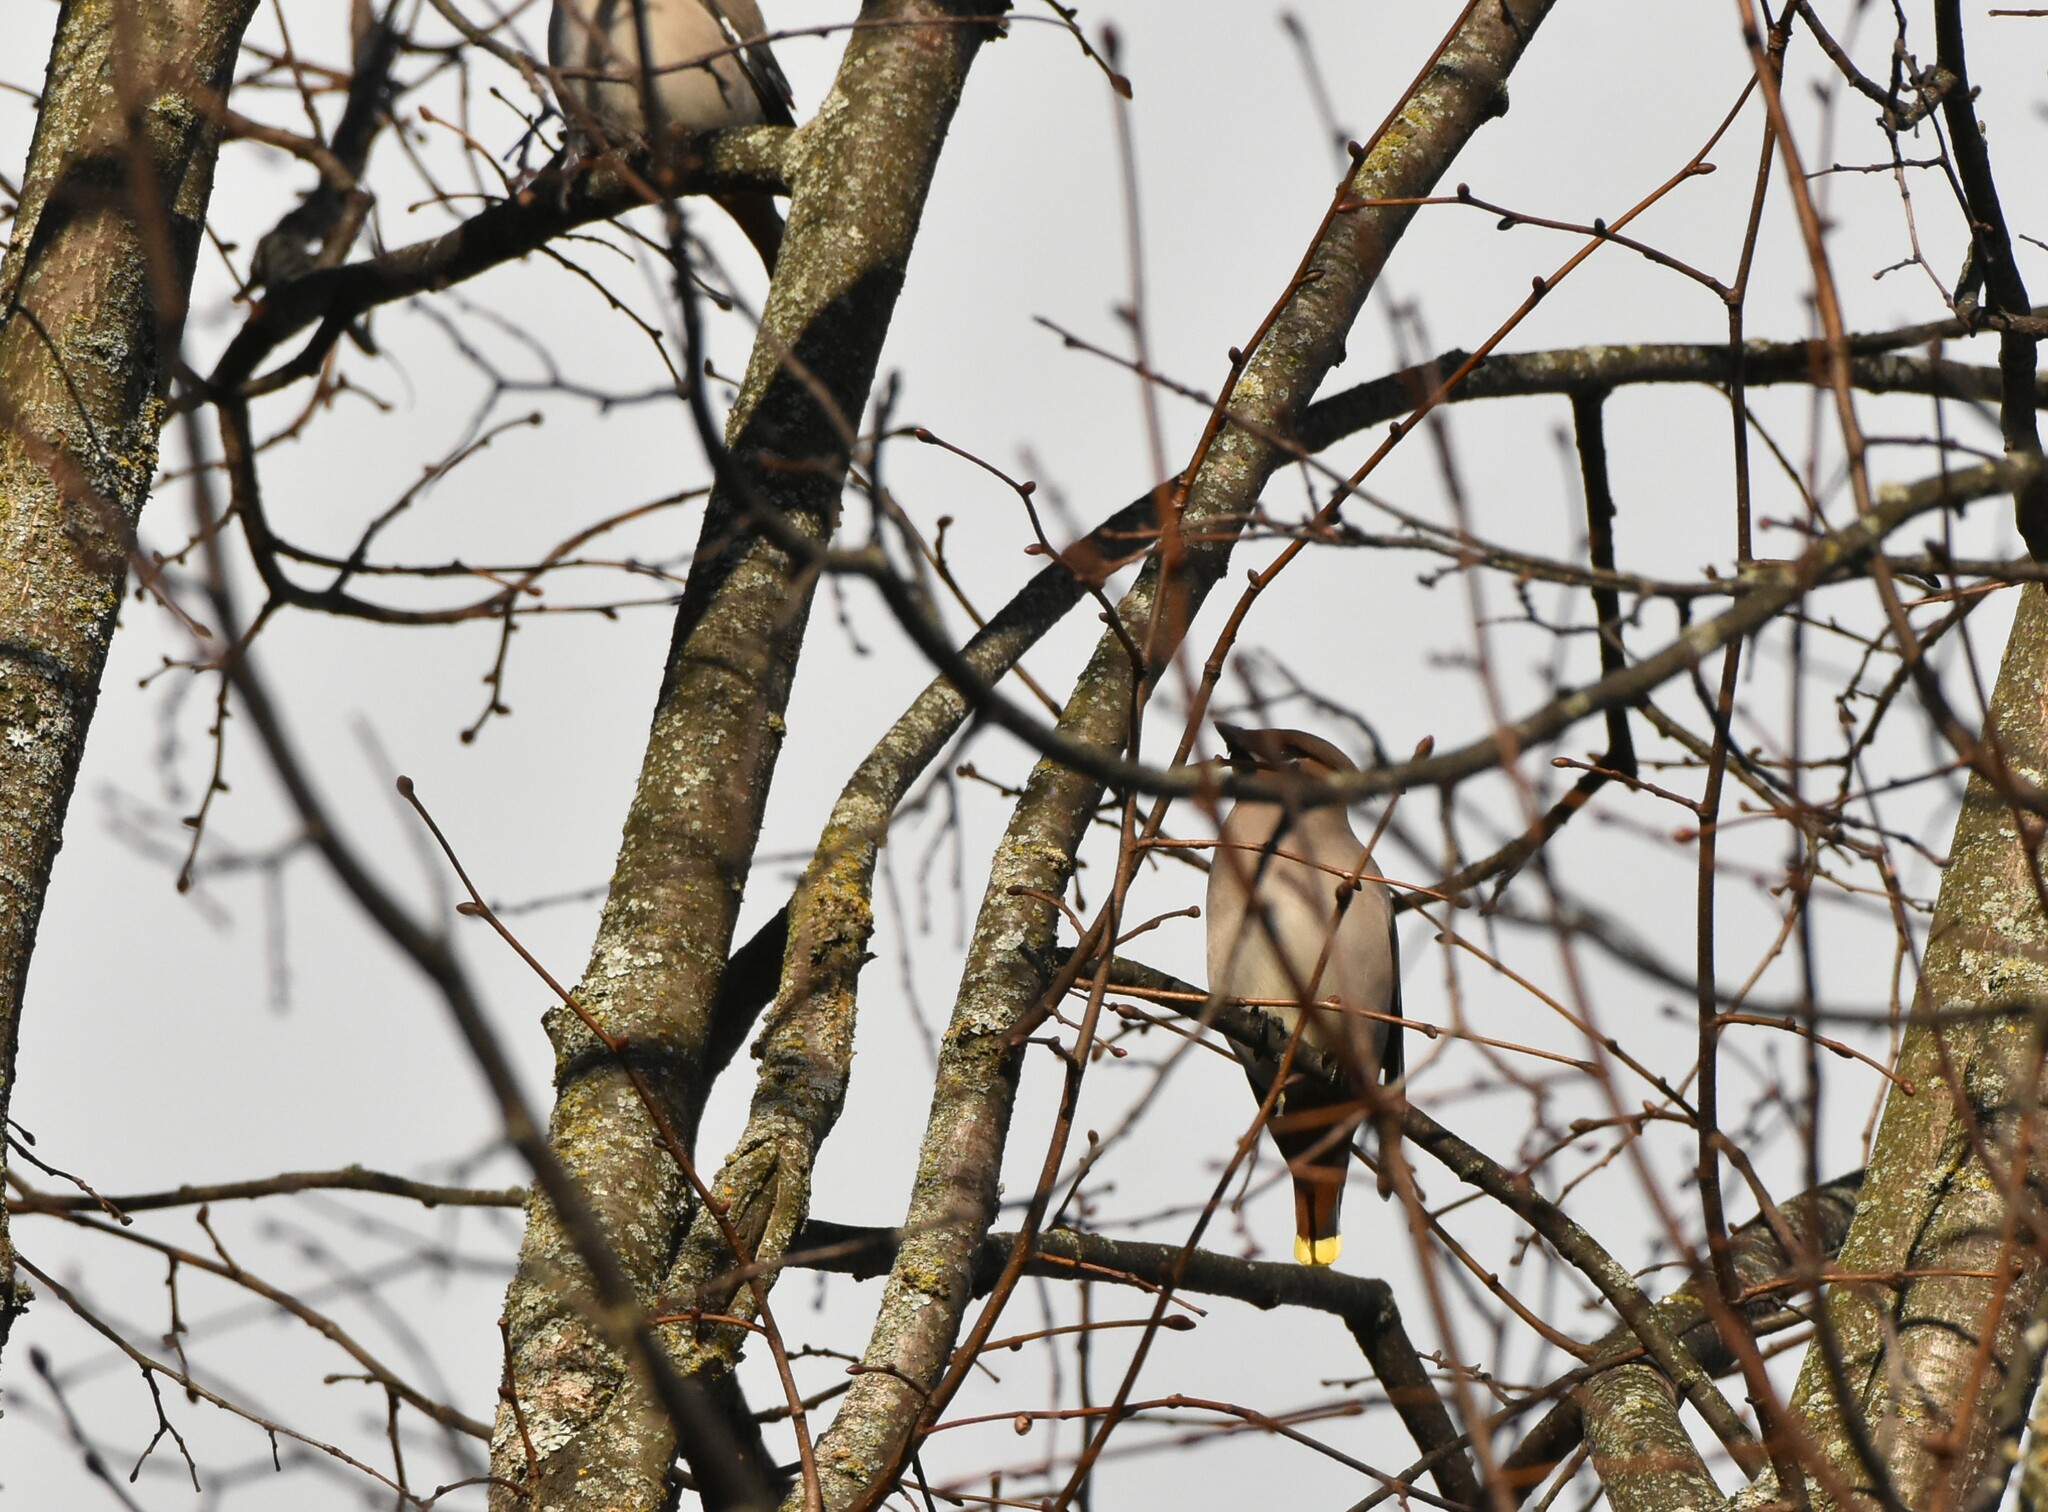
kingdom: Animalia
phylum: Chordata
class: Aves
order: Passeriformes
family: Bombycillidae
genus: Bombycilla
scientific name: Bombycilla garrulus
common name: Bohemian waxwing
